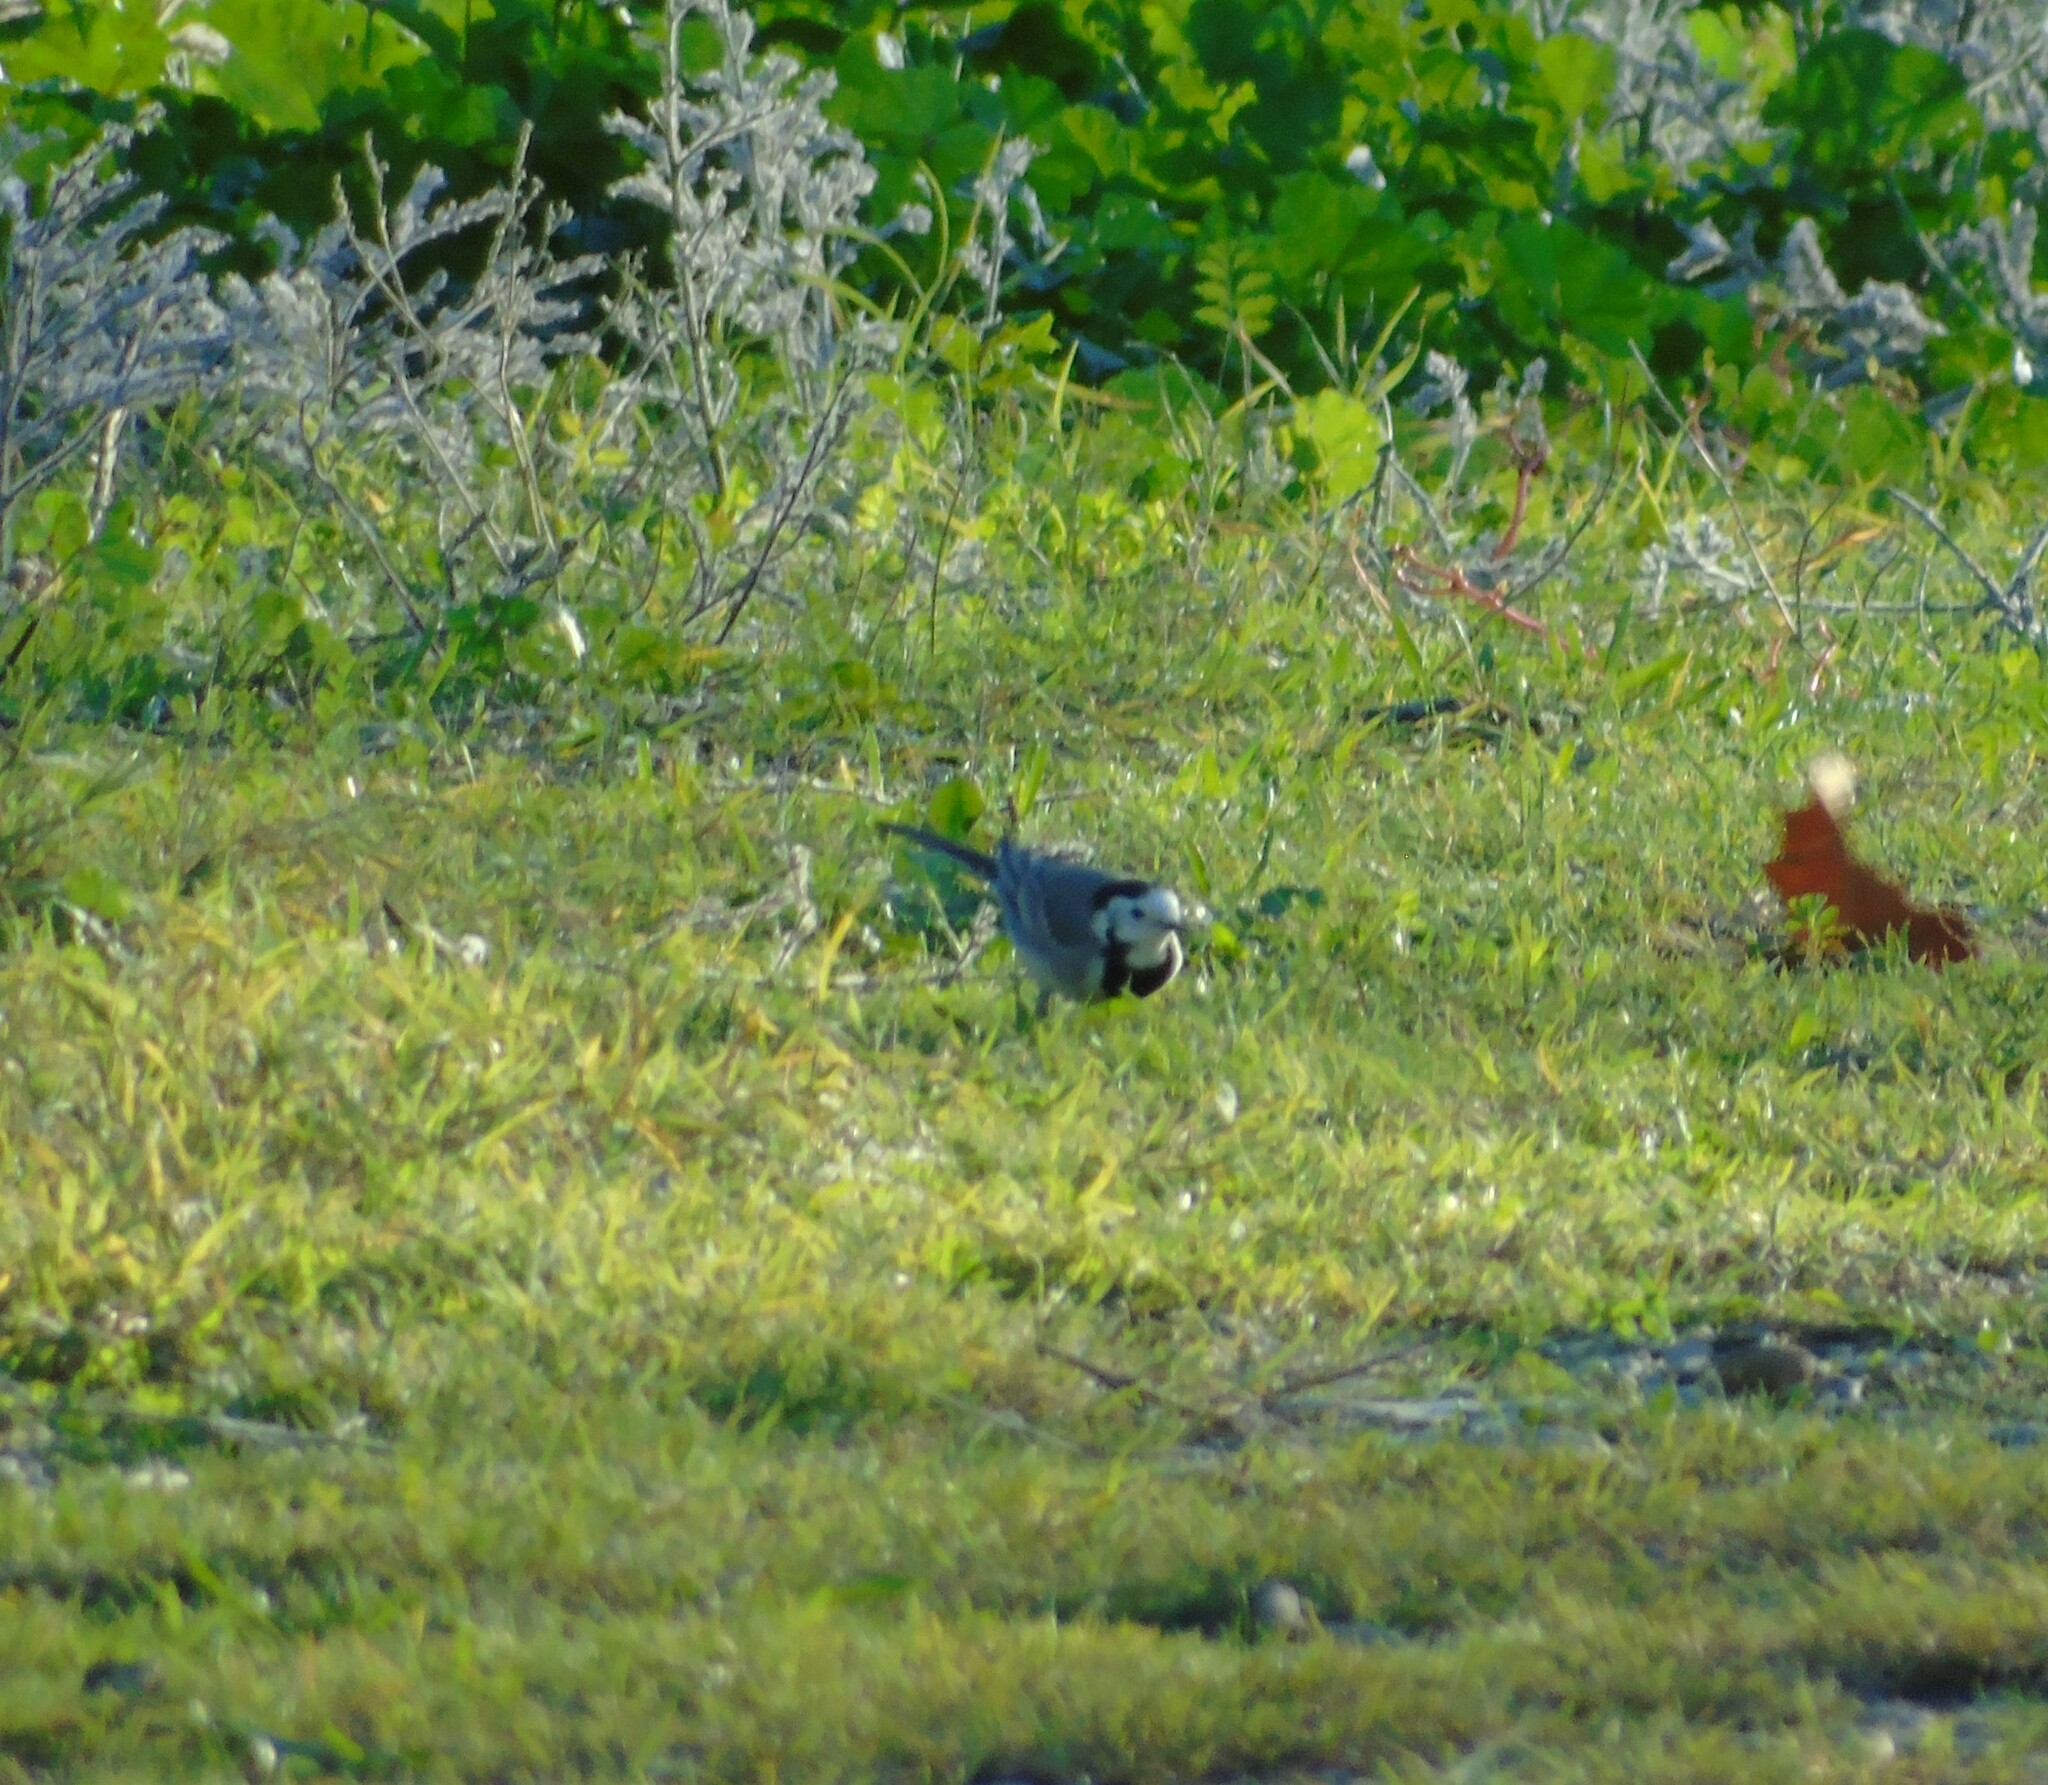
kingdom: Animalia
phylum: Chordata
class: Aves
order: Passeriformes
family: Motacillidae
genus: Motacilla
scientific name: Motacilla alba
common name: White wagtail
